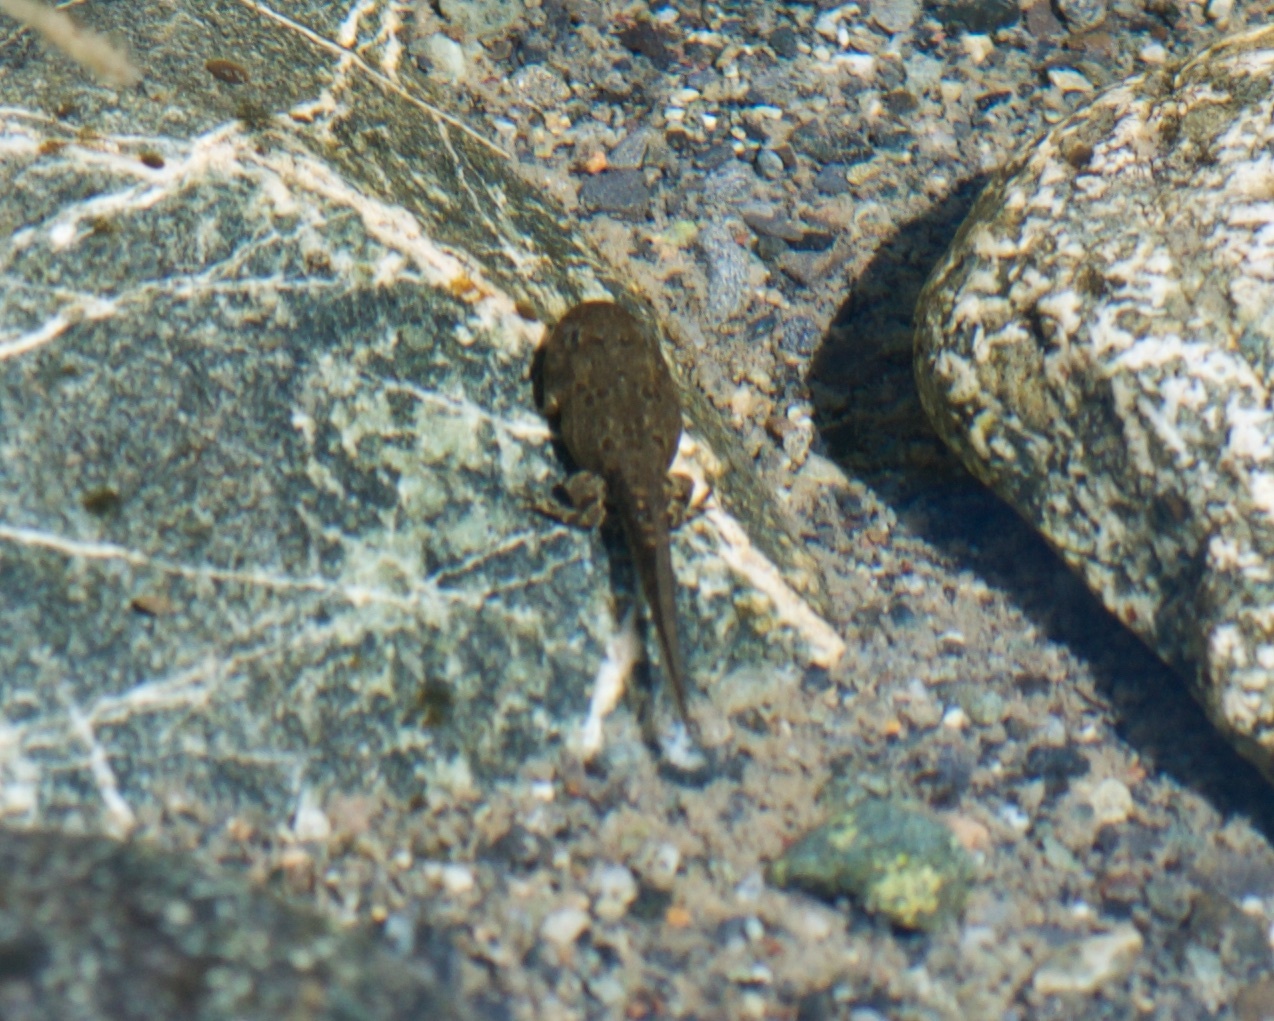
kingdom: Animalia
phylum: Chordata
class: Amphibia
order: Anura
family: Bufonidae
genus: Anaxyrus
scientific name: Anaxyrus boreas
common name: Western toad
